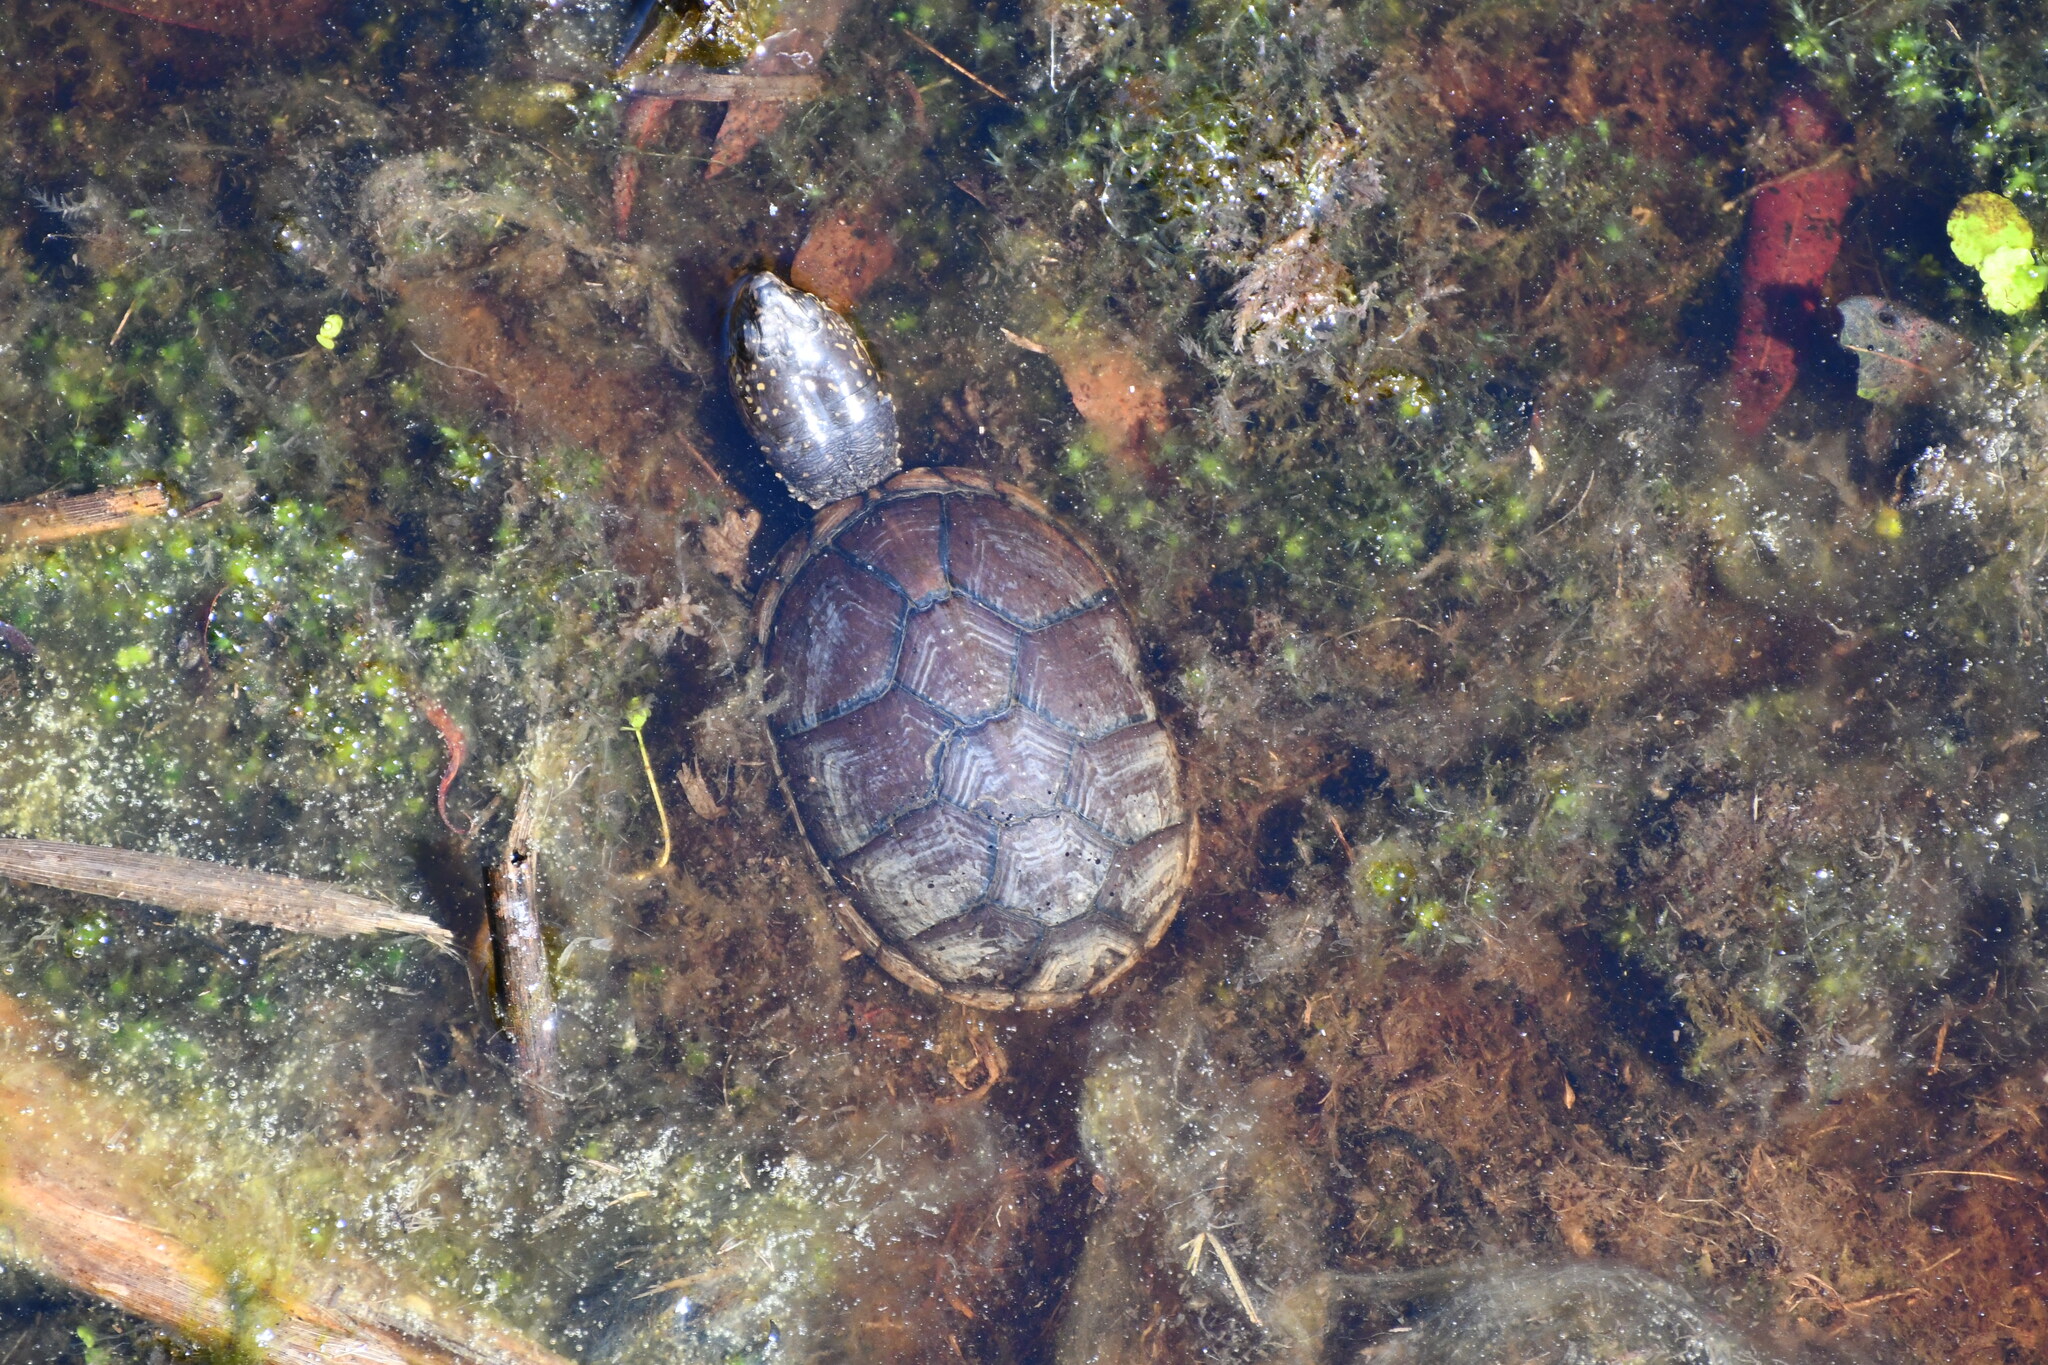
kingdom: Animalia
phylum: Chordata
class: Testudines
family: Kinosternidae
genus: Kinosternon
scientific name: Kinosternon subrubrum
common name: Eastern mud turtle
